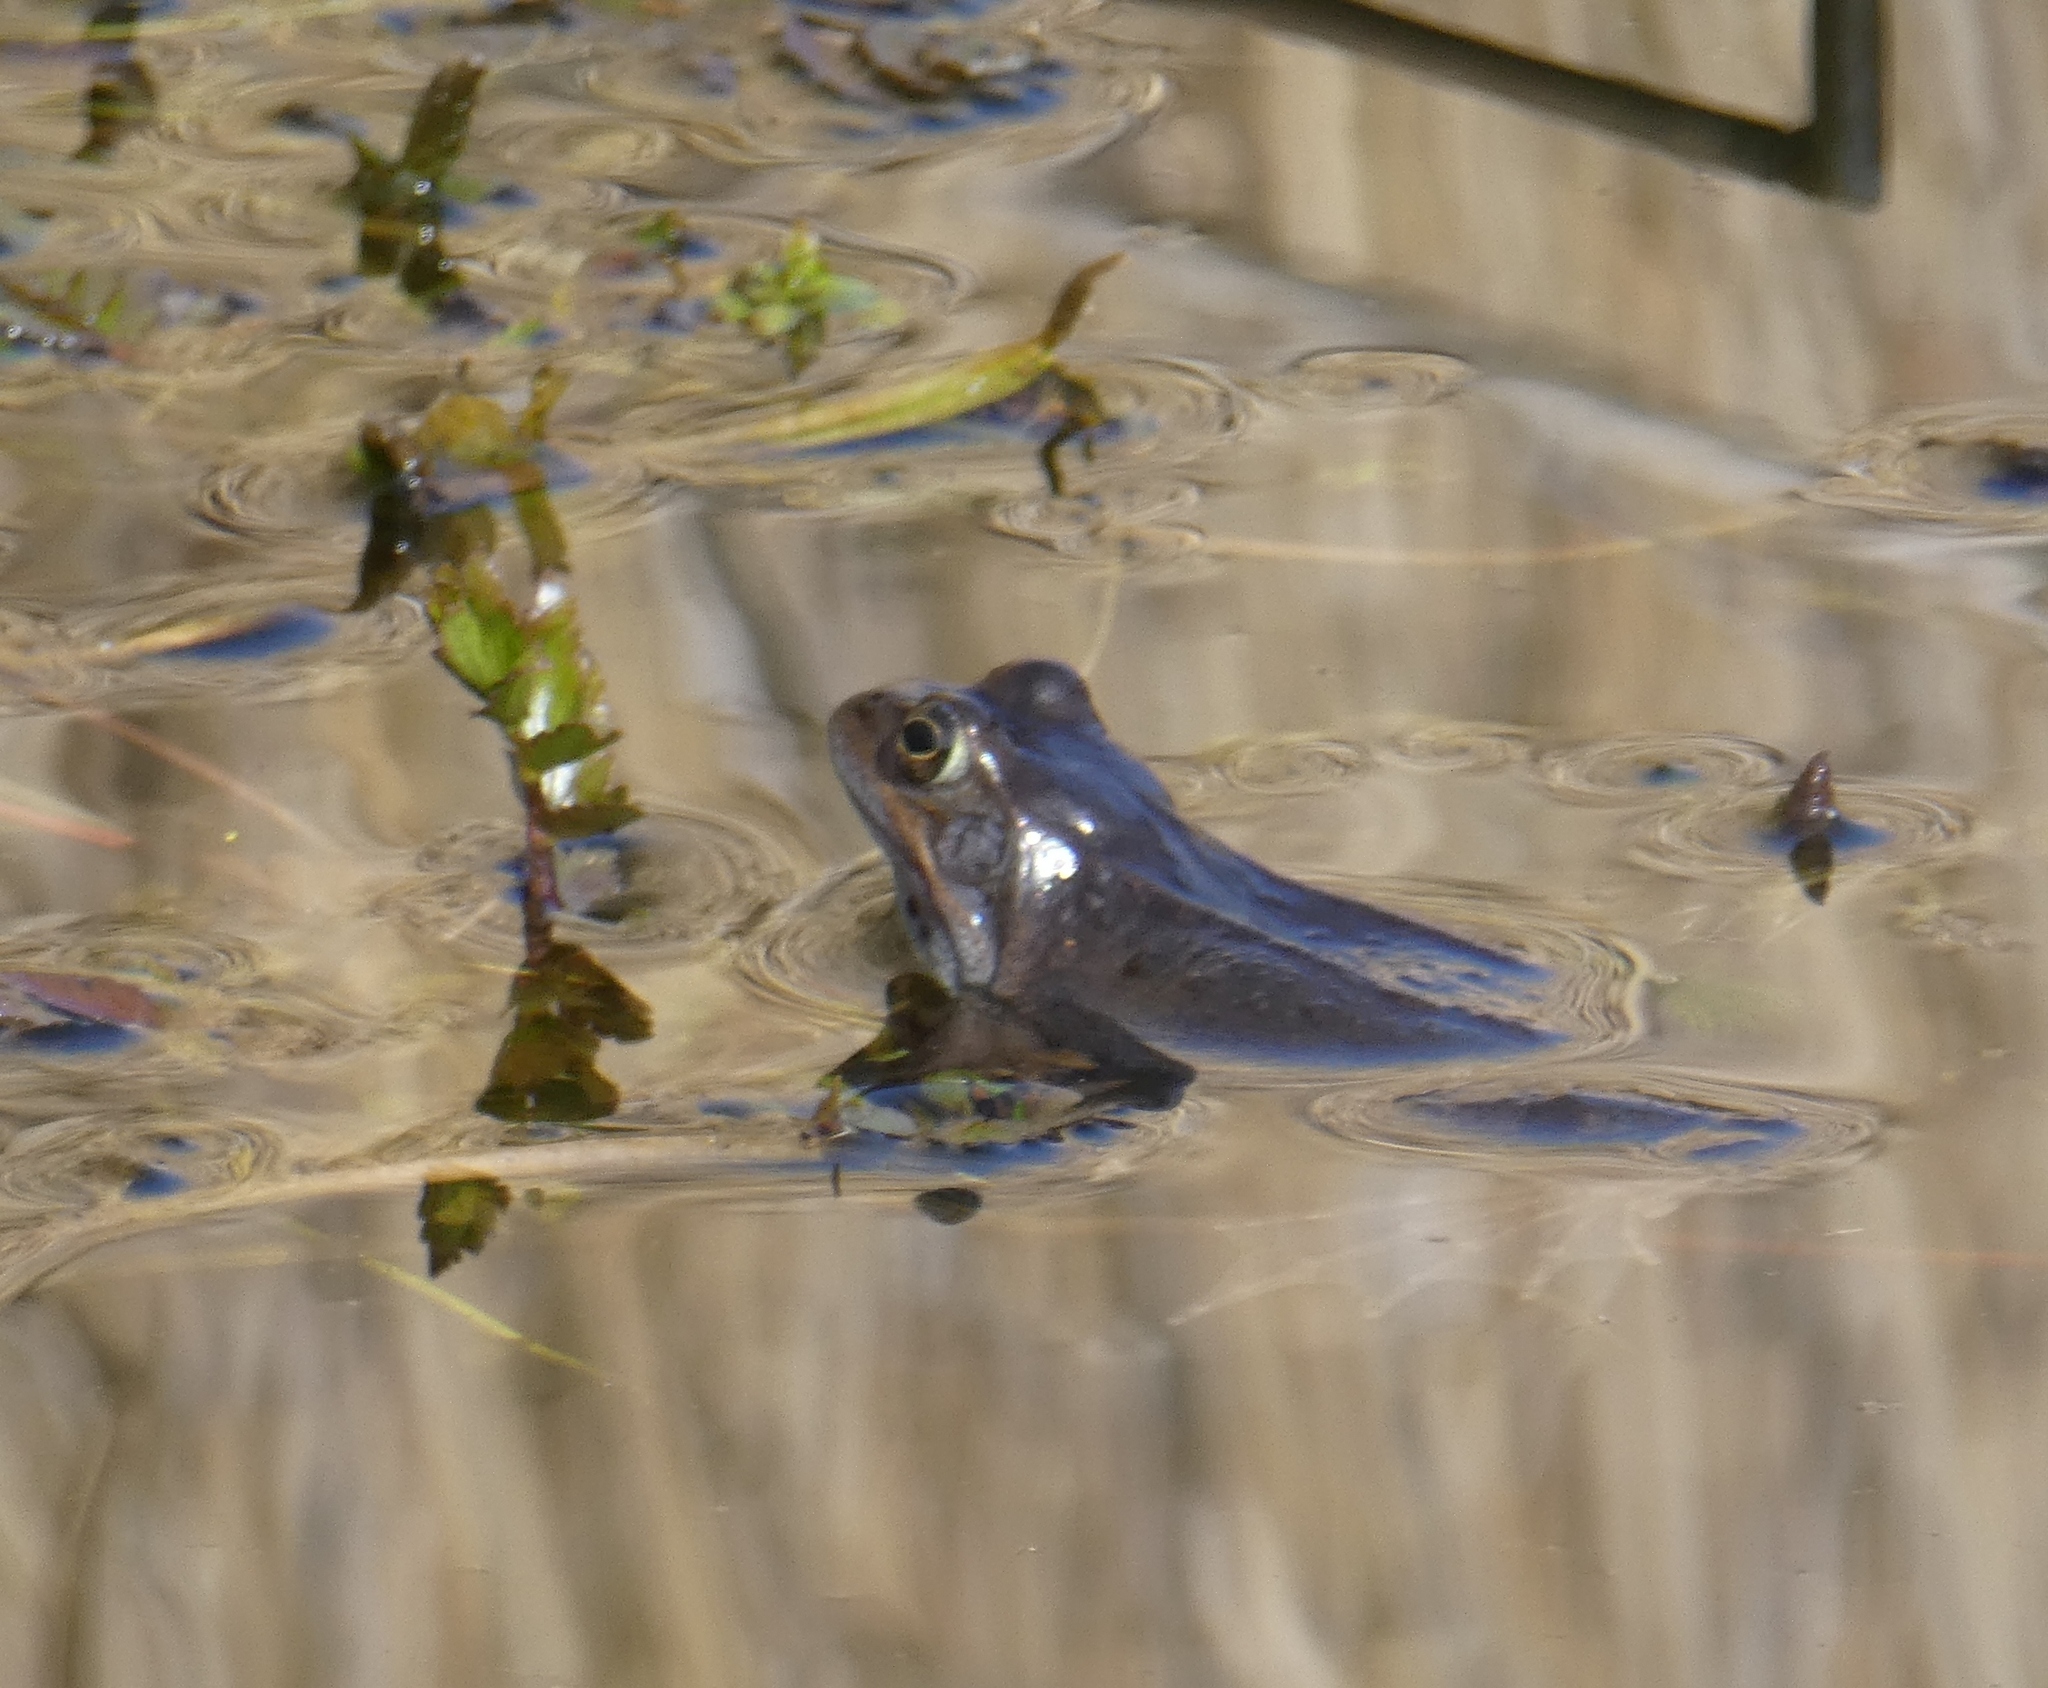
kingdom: Animalia
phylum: Chordata
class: Amphibia
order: Anura
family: Ranidae
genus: Rana
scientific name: Rana temporaria
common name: Common frog
